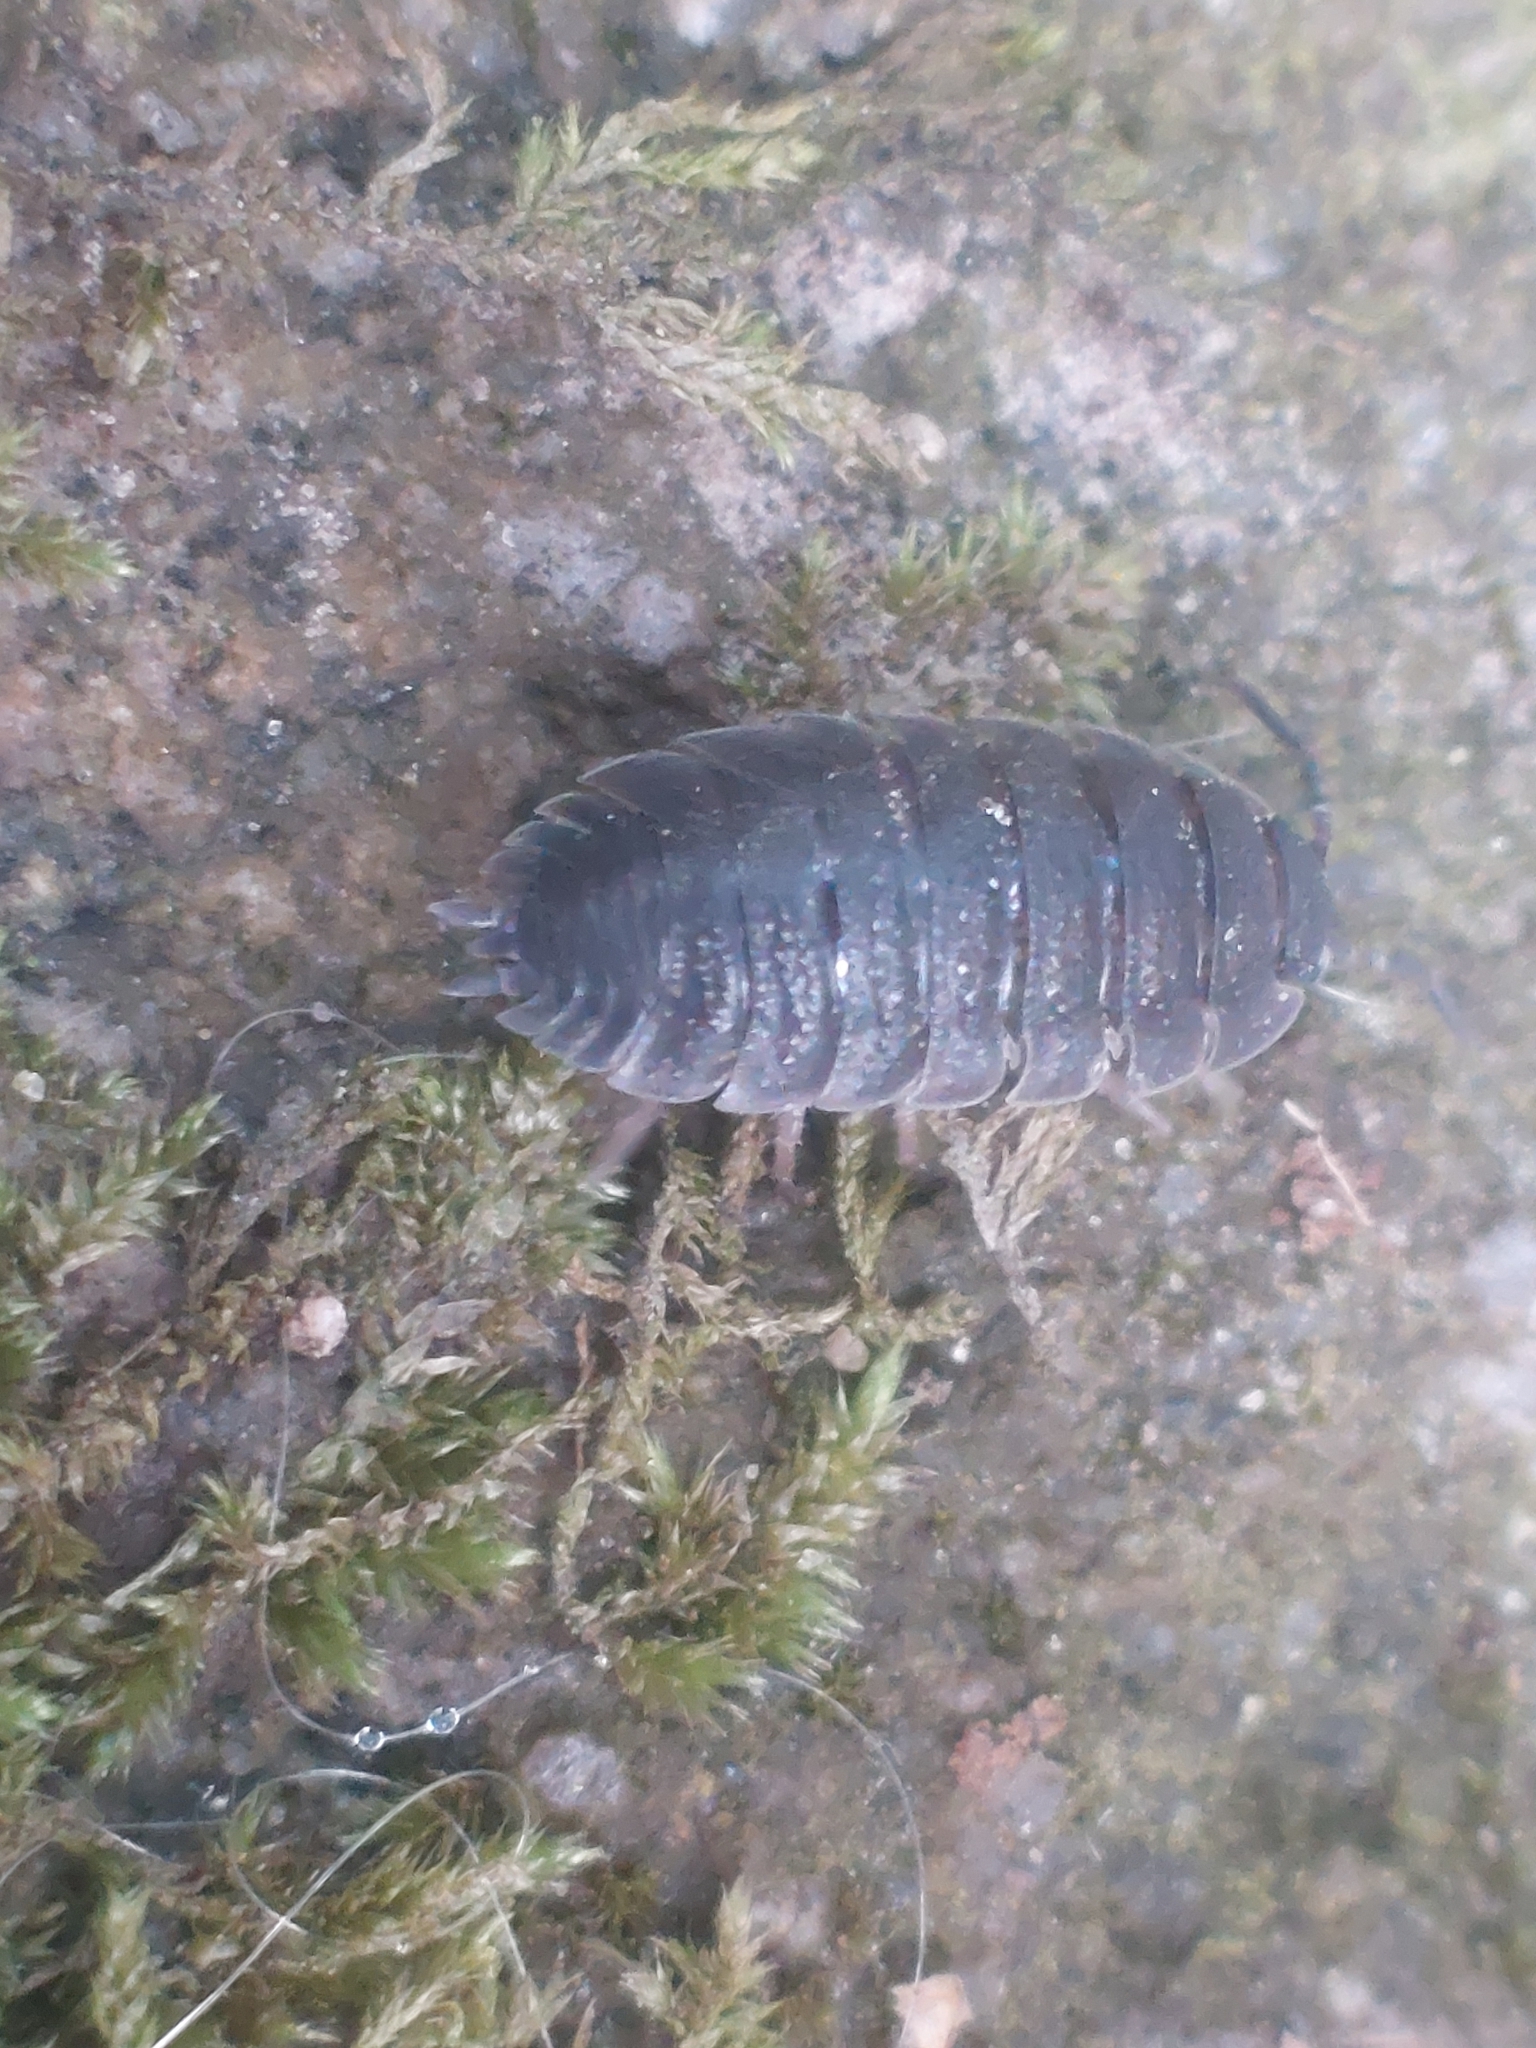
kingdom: Animalia
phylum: Arthropoda
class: Malacostraca
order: Isopoda
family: Porcellionidae
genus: Porcellio
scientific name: Porcellio scaber
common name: Common rough woodlouse
